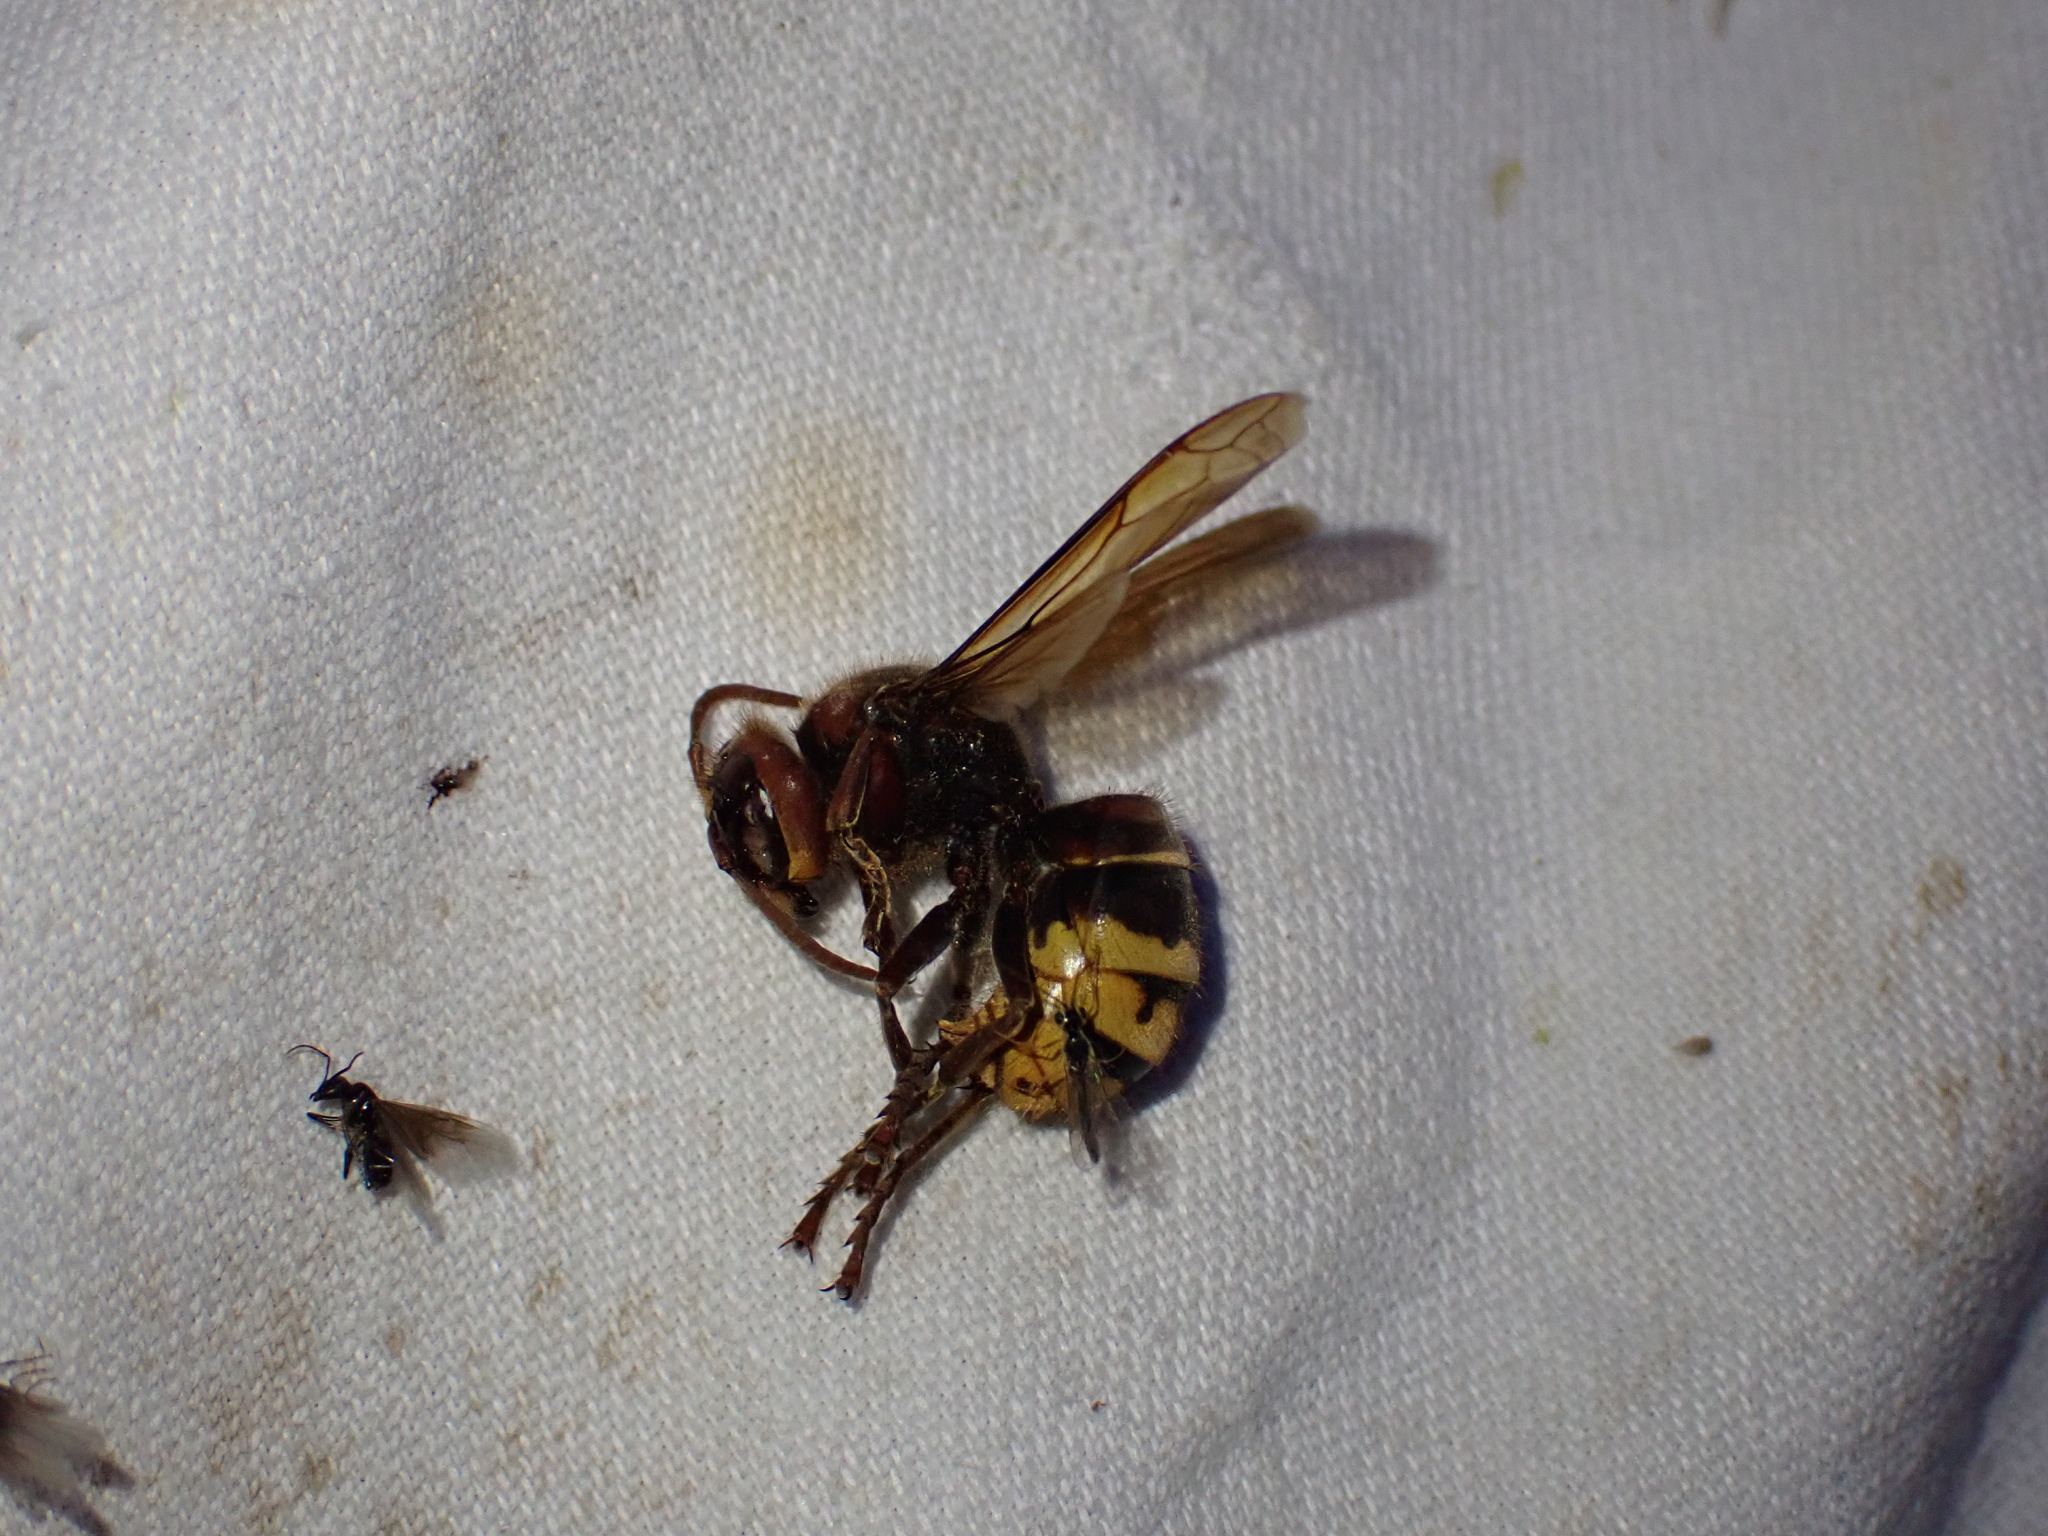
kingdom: Animalia
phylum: Arthropoda
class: Insecta
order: Hymenoptera
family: Vespidae
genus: Vespa
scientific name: Vespa crabro
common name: Hornet
